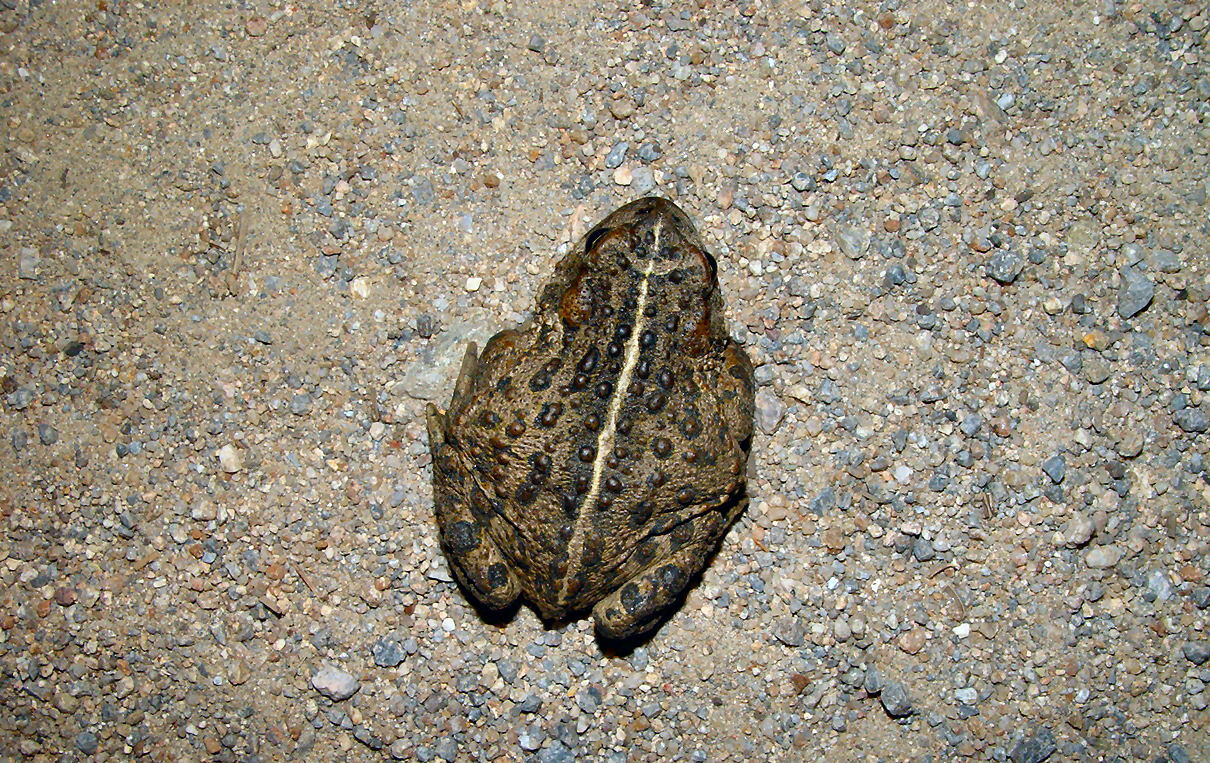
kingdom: Animalia
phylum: Chordata
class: Amphibia
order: Anura
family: Bufonidae
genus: Anaxyrus
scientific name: Anaxyrus boreas
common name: Western toad
